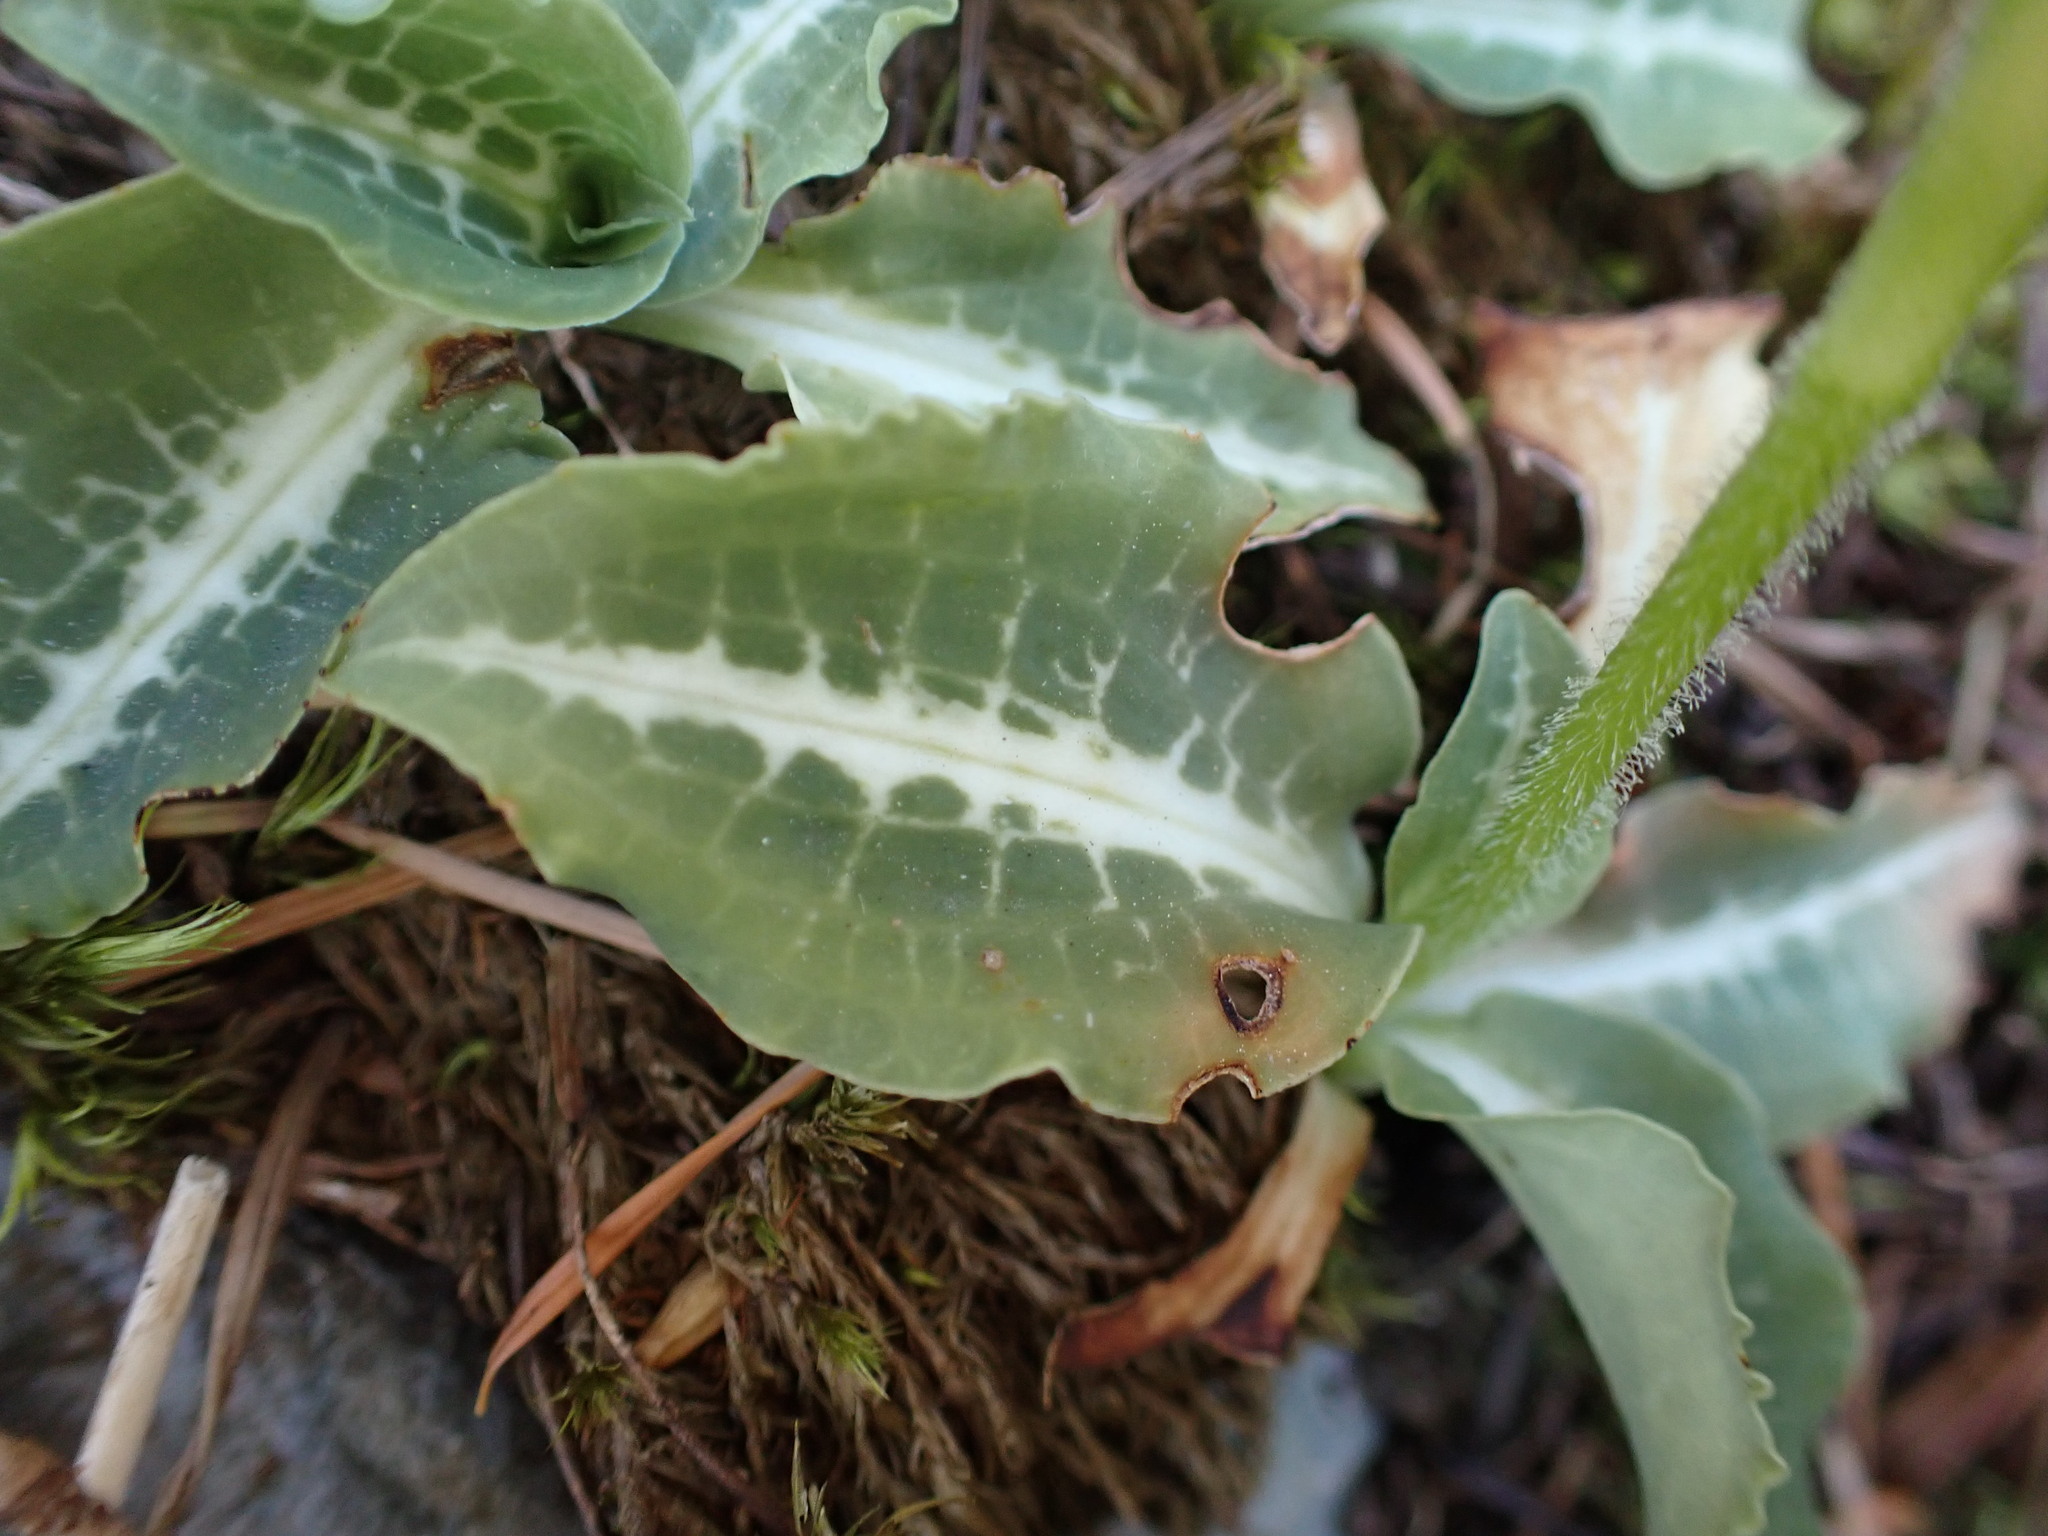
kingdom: Plantae
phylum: Tracheophyta
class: Liliopsida
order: Asparagales
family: Orchidaceae
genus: Goodyera
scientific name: Goodyera oblongifolia
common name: Giant rattlesnake-plantain
